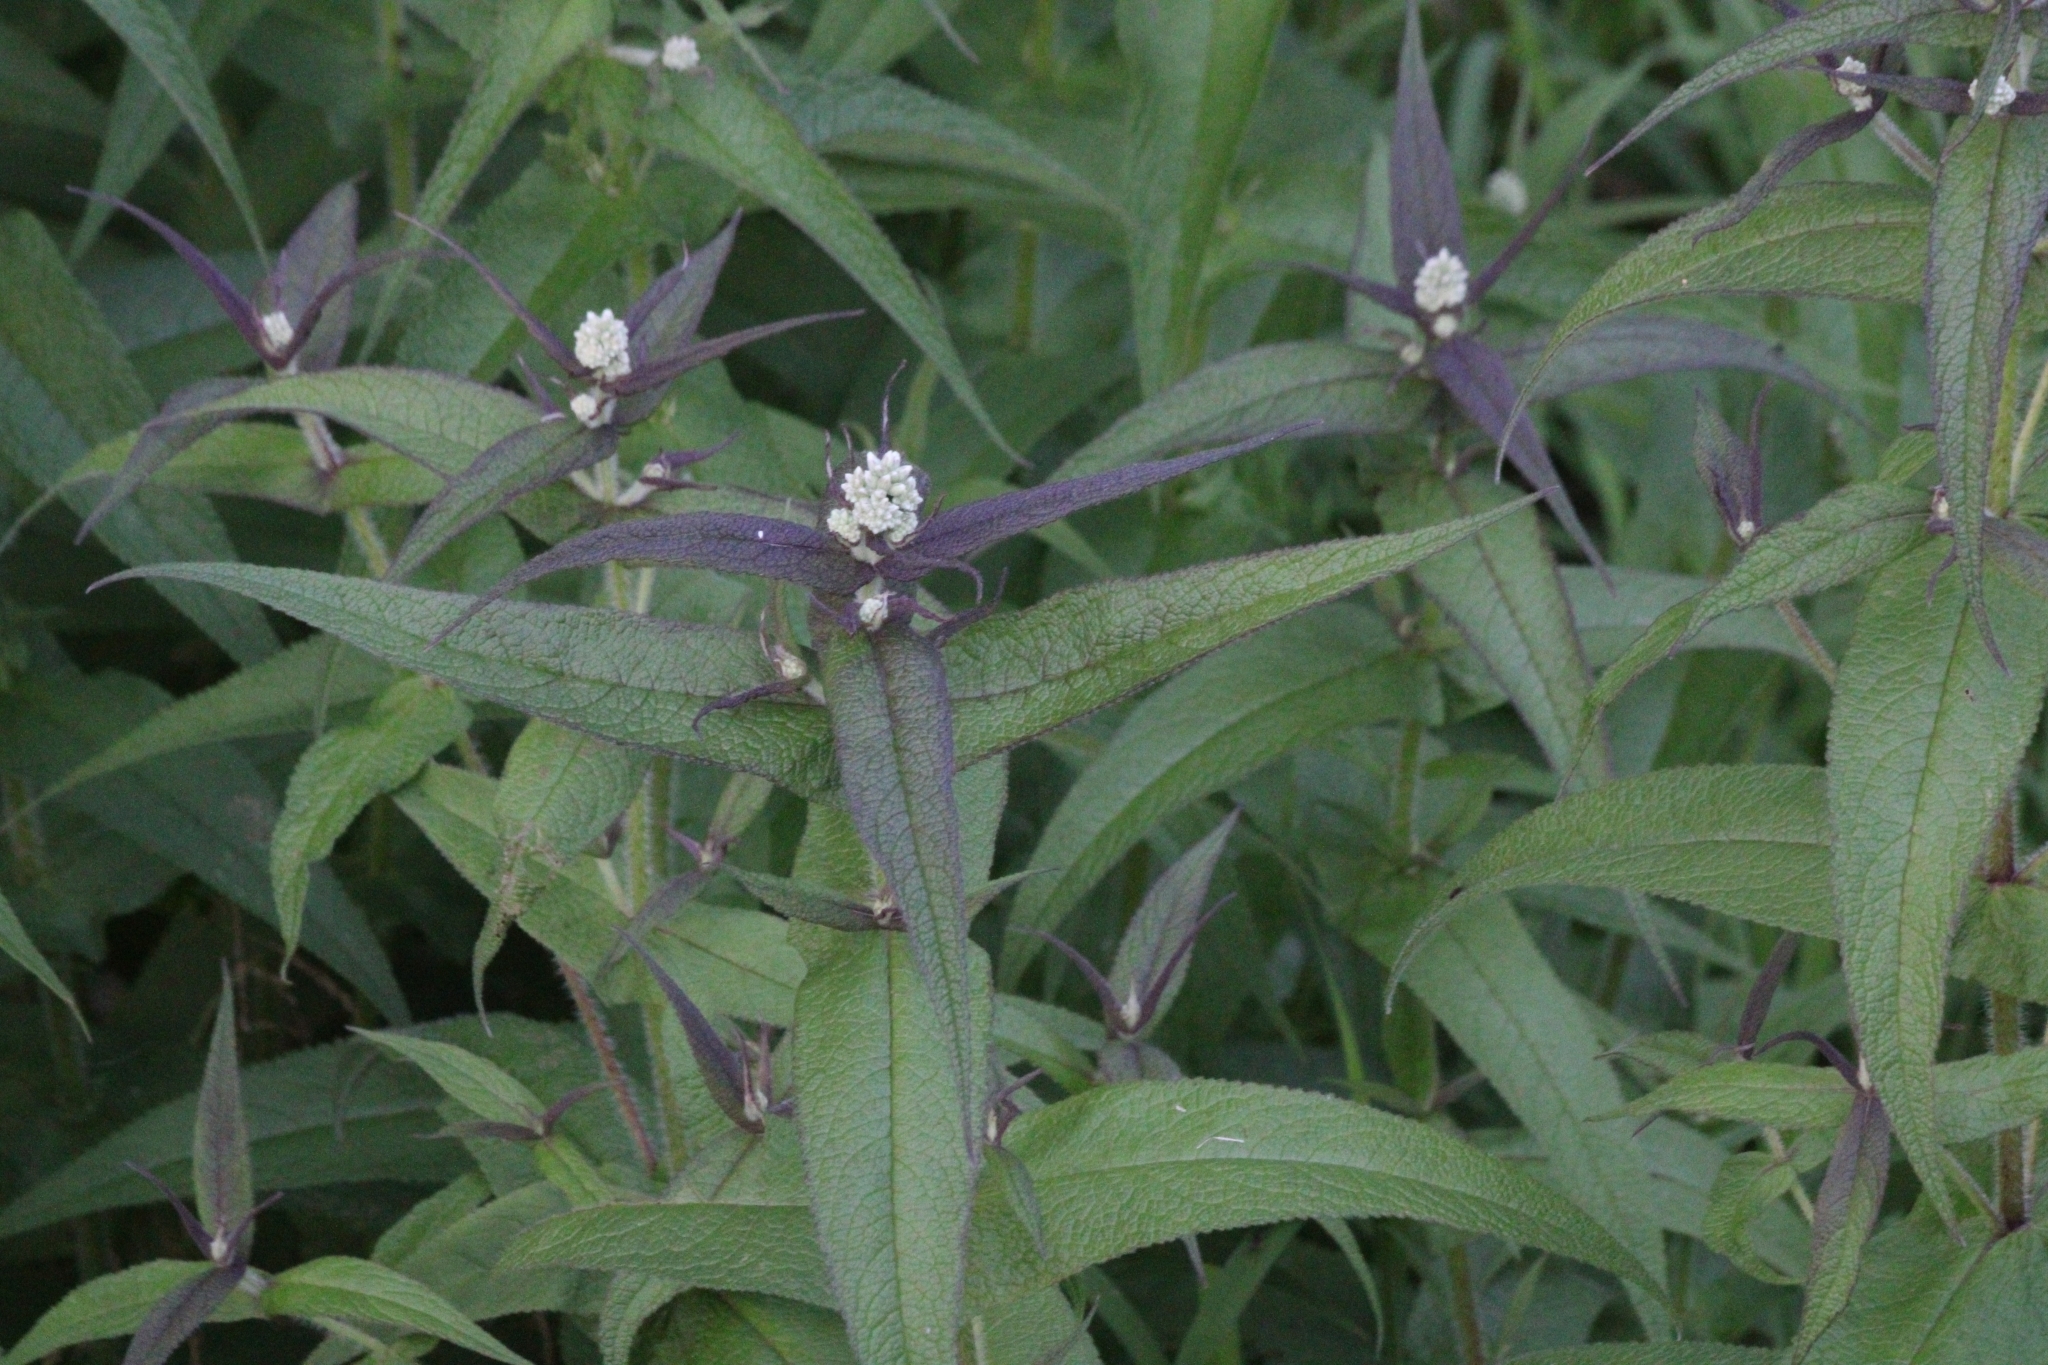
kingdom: Plantae
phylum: Tracheophyta
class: Magnoliopsida
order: Asterales
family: Asteraceae
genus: Eupatorium
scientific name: Eupatorium perfoliatum
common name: Boneset
